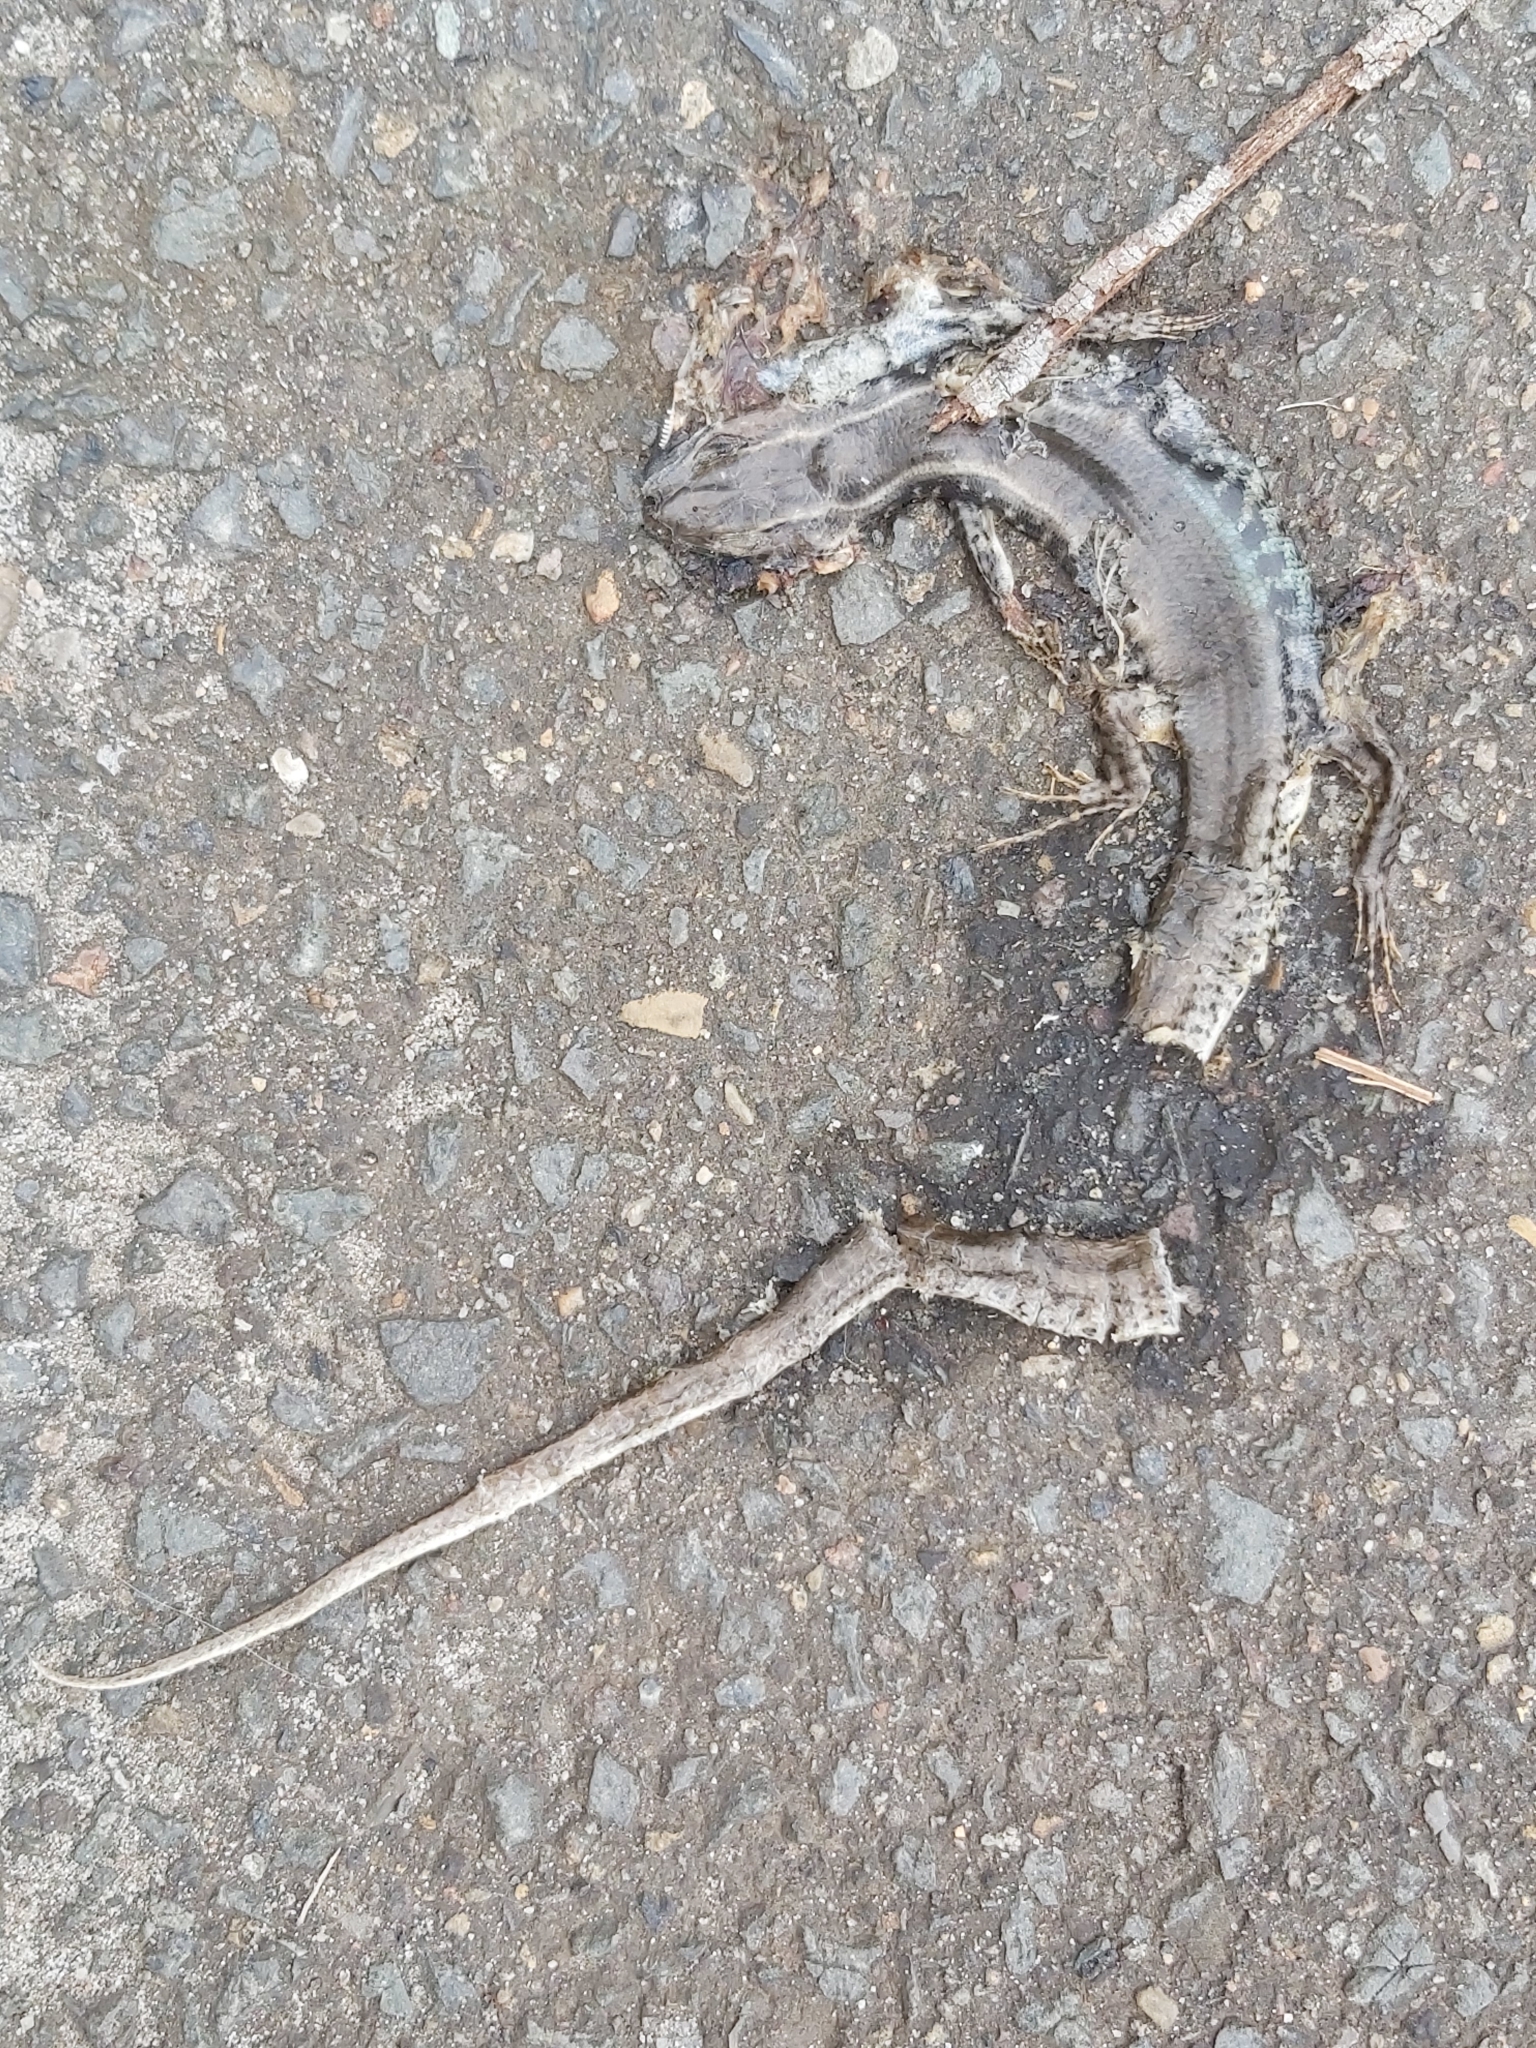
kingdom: Animalia
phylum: Chordata
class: Squamata
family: Scincidae
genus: Eulamprus
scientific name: Eulamprus quoyii
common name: Eastern water skink
